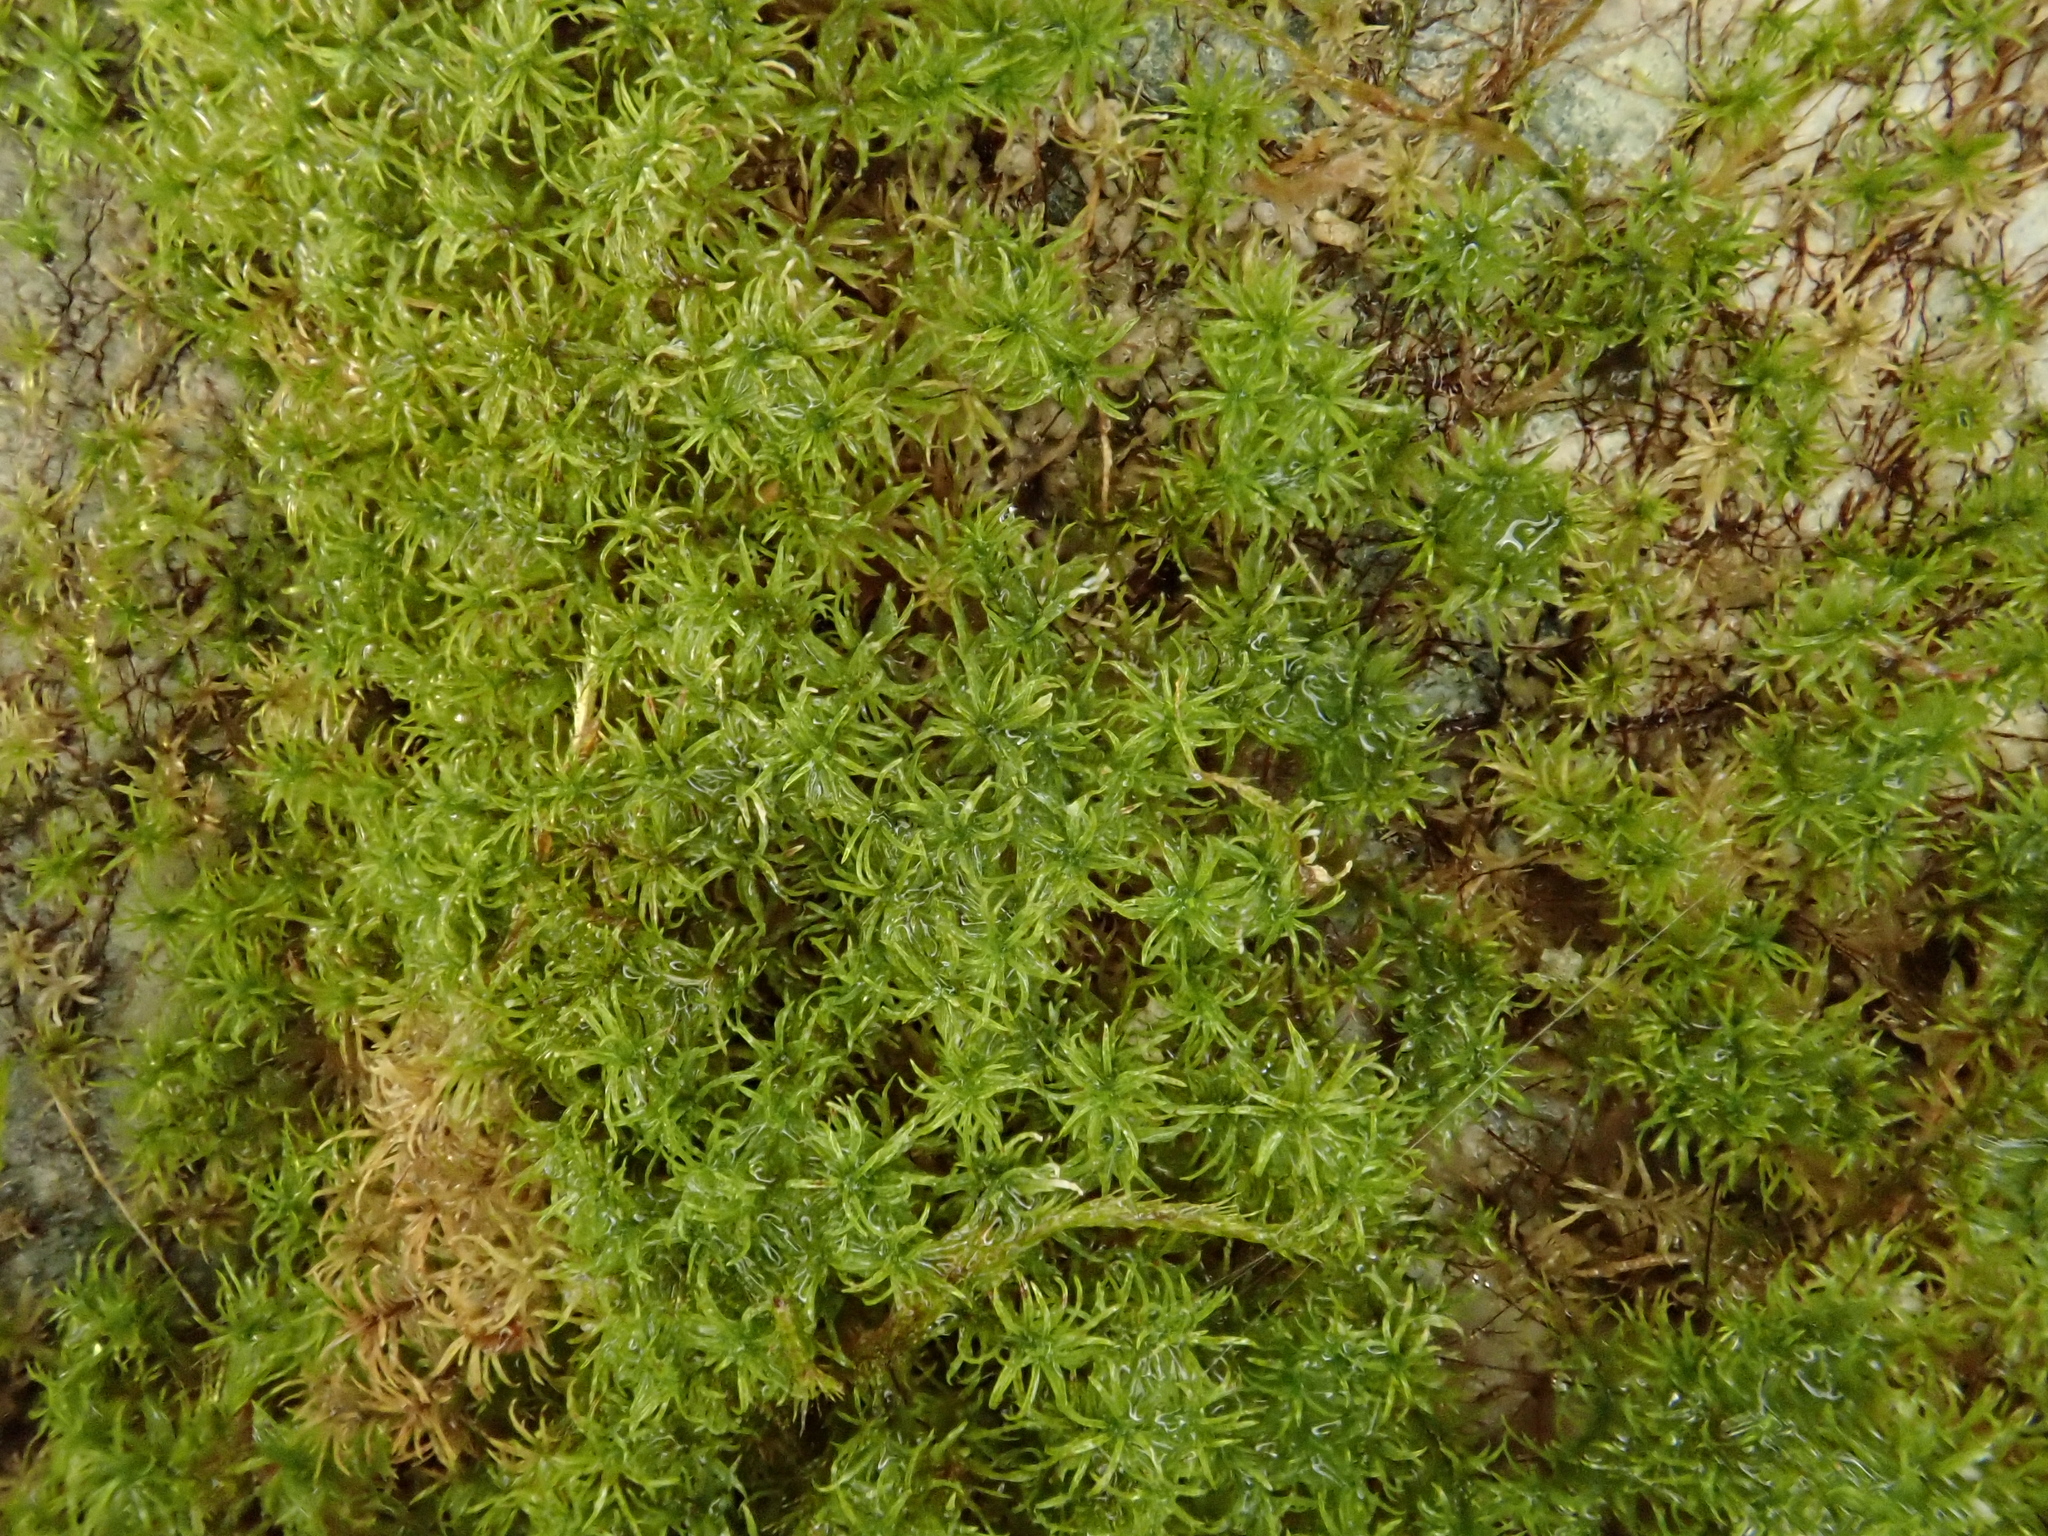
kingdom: Plantae
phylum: Bryophyta
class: Bryopsida
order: Pottiales
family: Pottiaceae
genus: Eucladium
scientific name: Eucladium verticillatum
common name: Whorled tufa-moss
